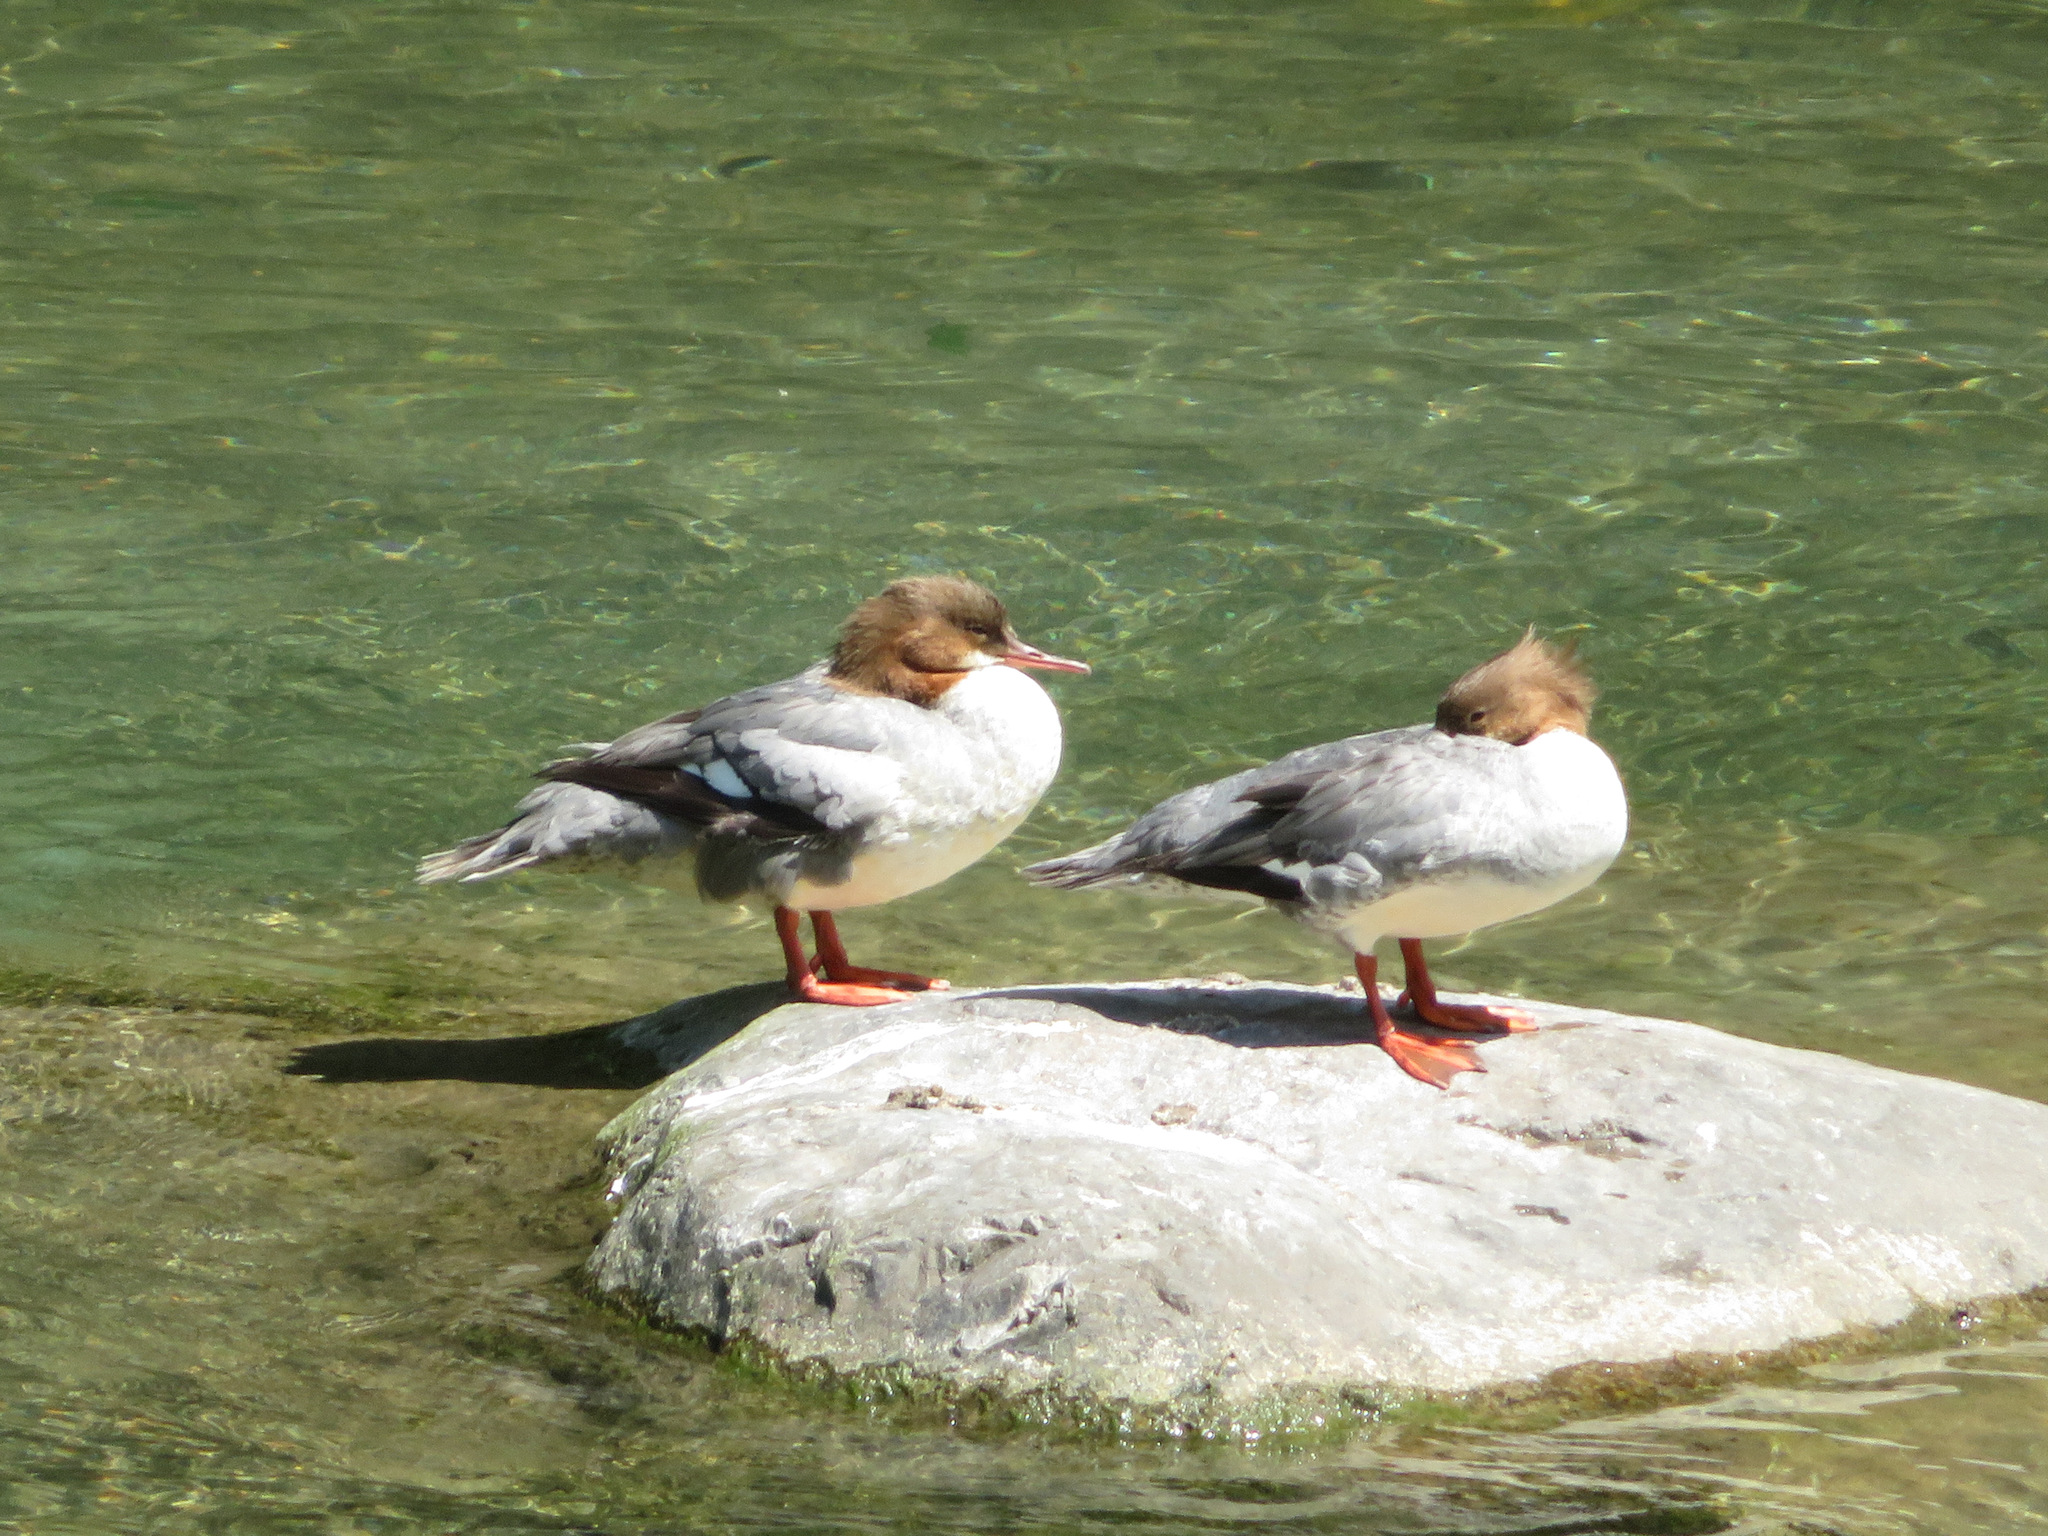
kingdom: Animalia
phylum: Chordata
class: Aves
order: Anseriformes
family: Anatidae
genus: Mergus
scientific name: Mergus merganser
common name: Common merganser
